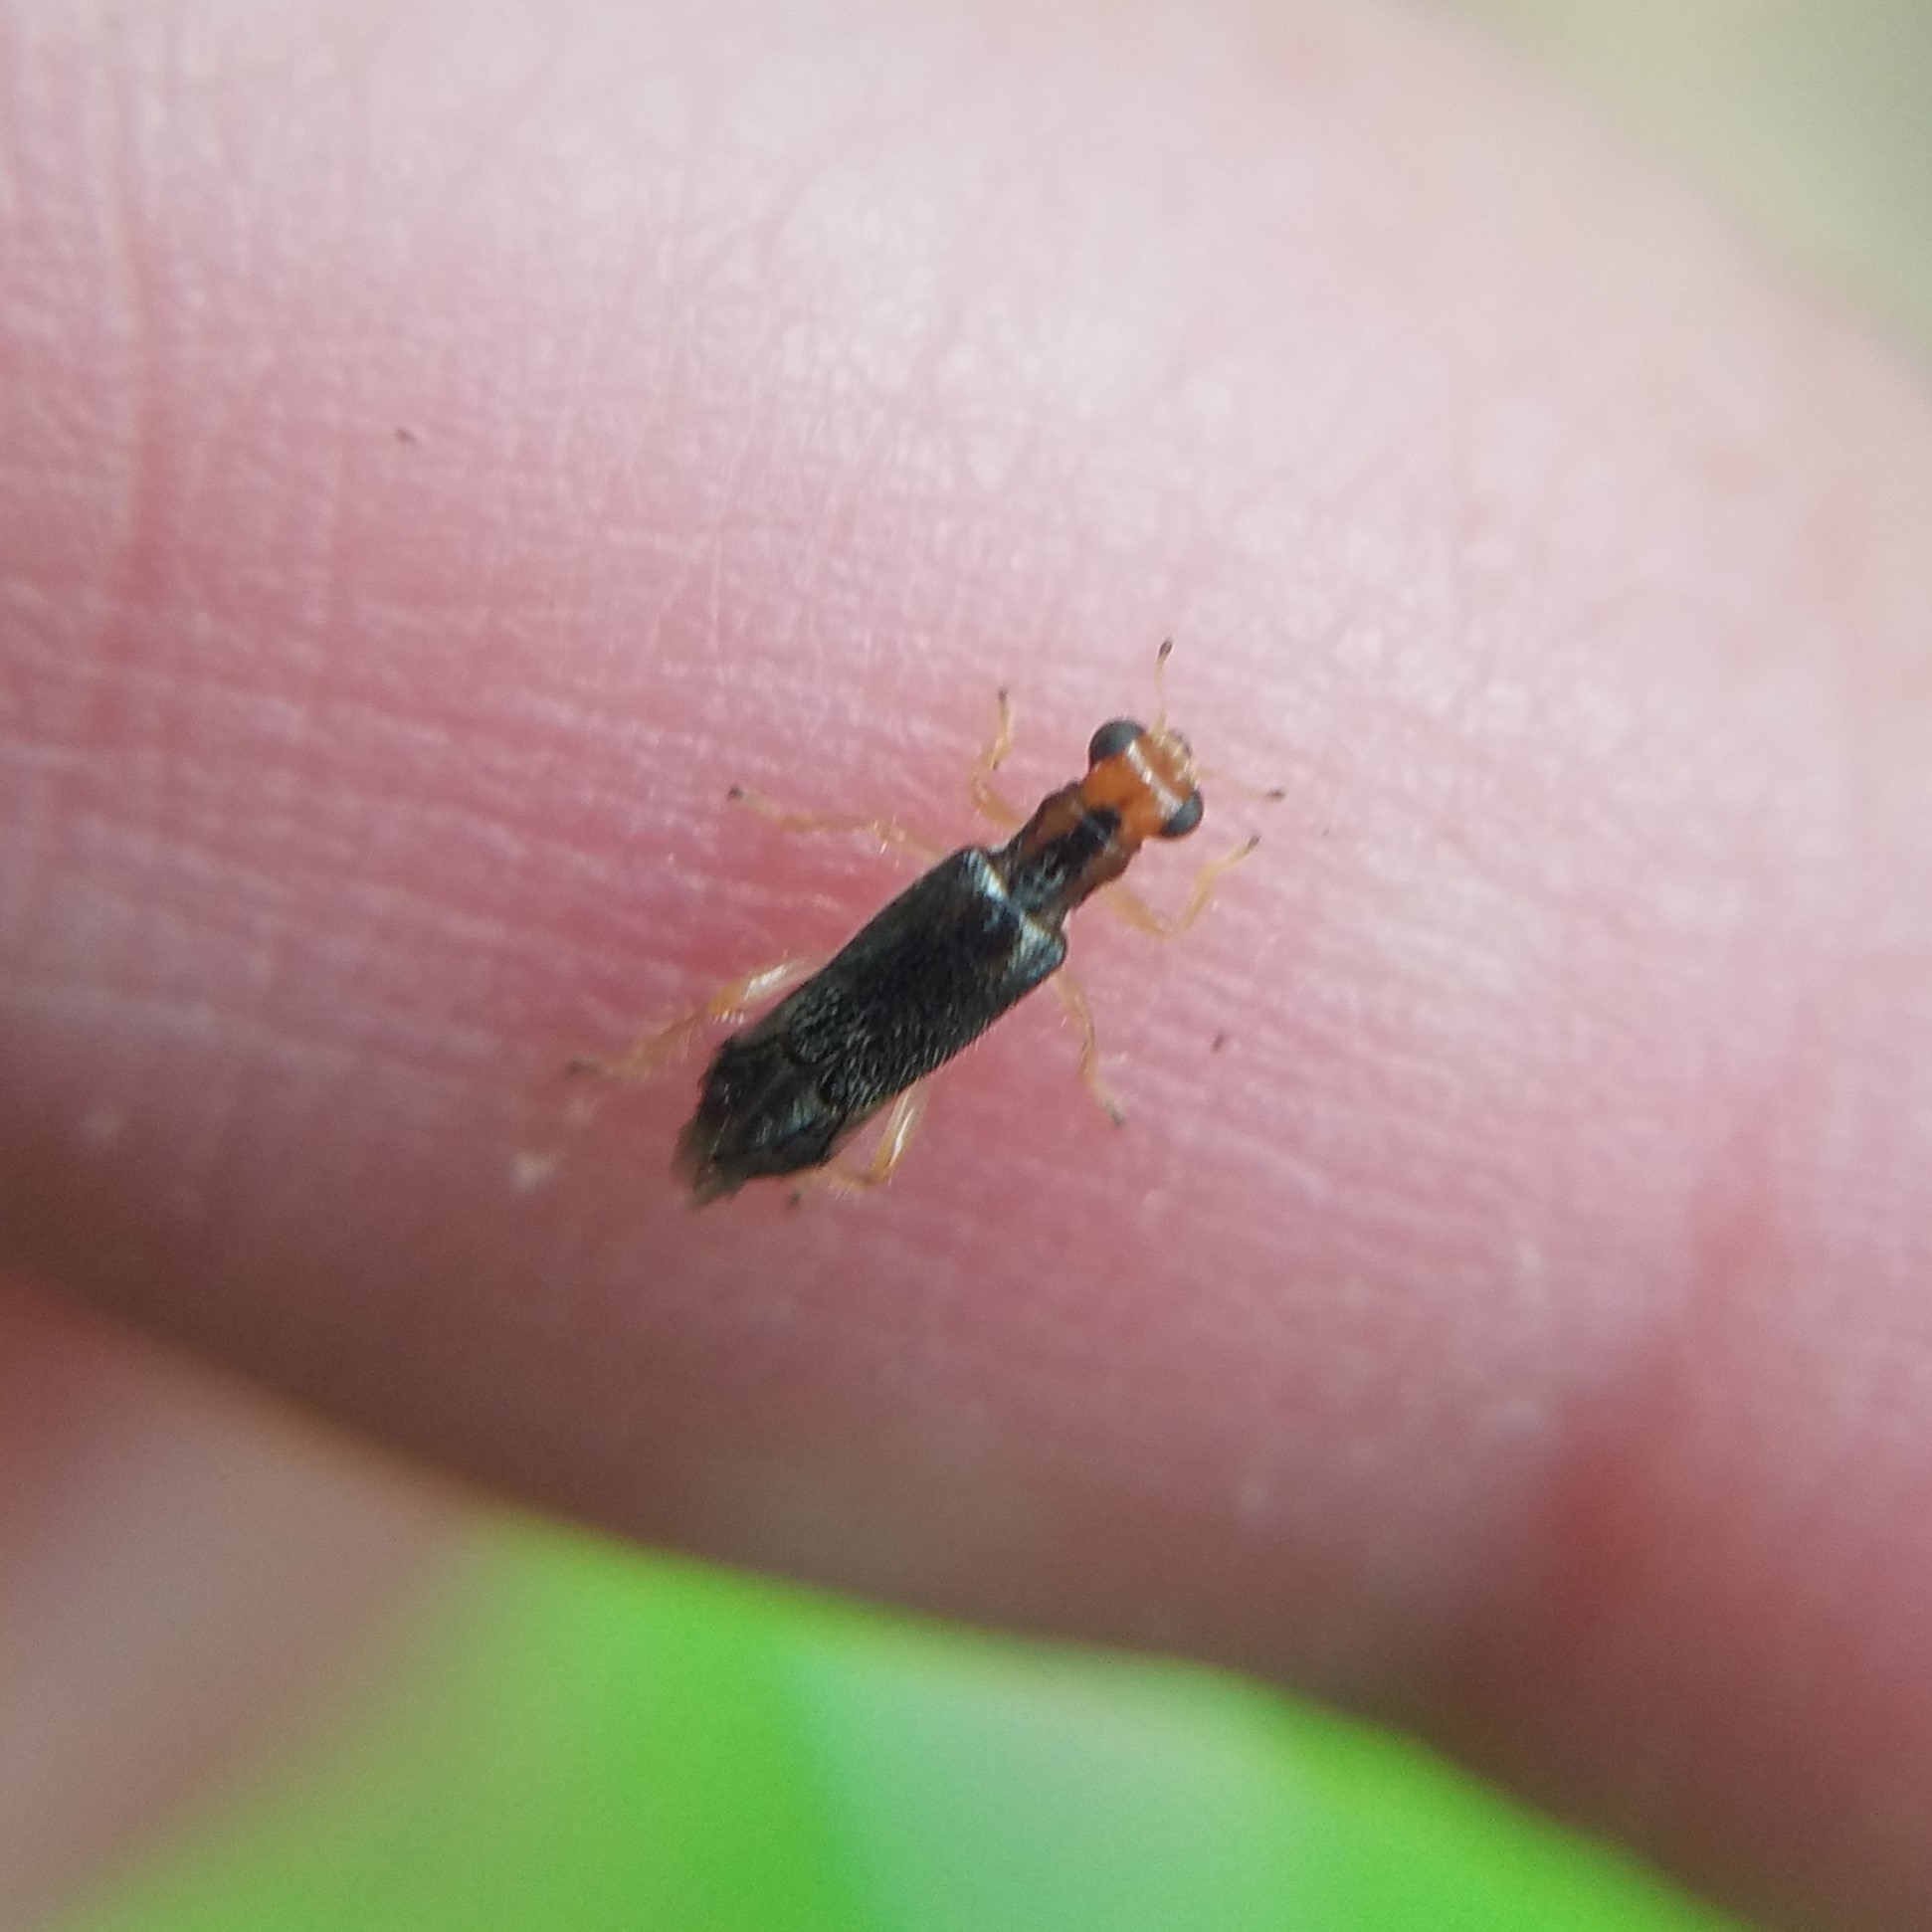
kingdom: Animalia
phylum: Arthropoda
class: Insecta
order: Coleoptera
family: Cleridae
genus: Phyllobaenus
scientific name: Phyllobaenus verticalis
